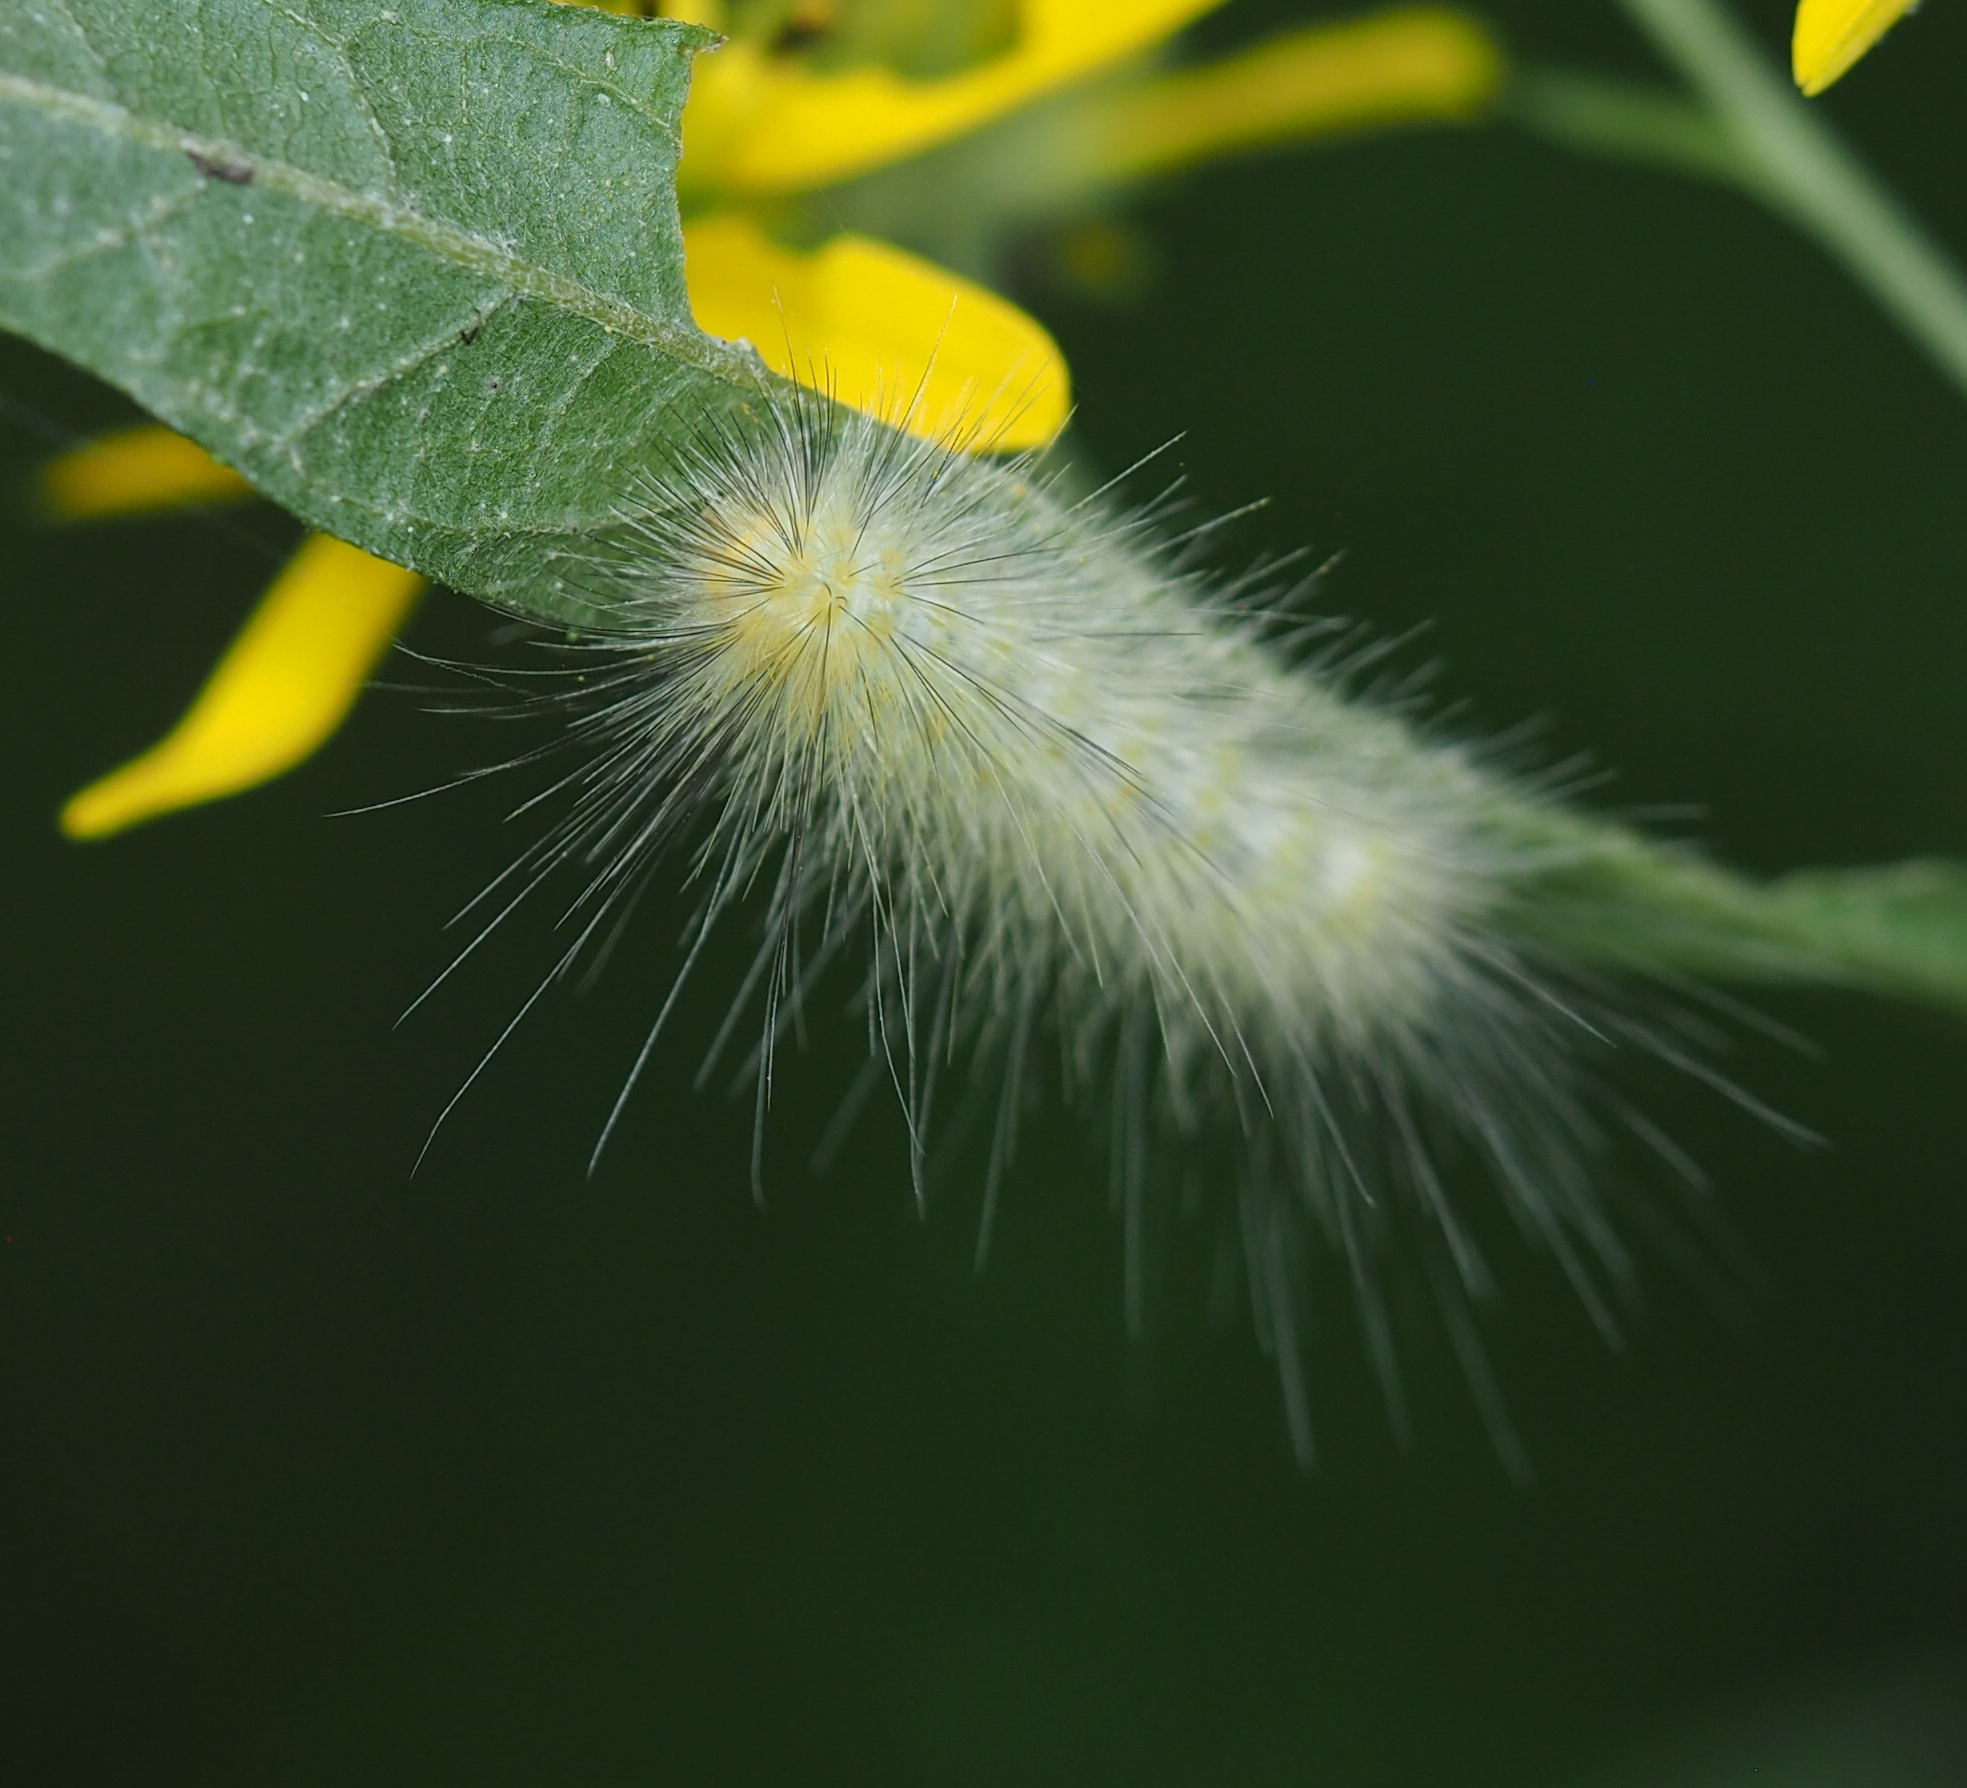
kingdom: Animalia
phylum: Arthropoda
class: Insecta
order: Lepidoptera
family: Erebidae
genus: Spilosoma
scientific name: Spilosoma virginica
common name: Virginia tiger moth
